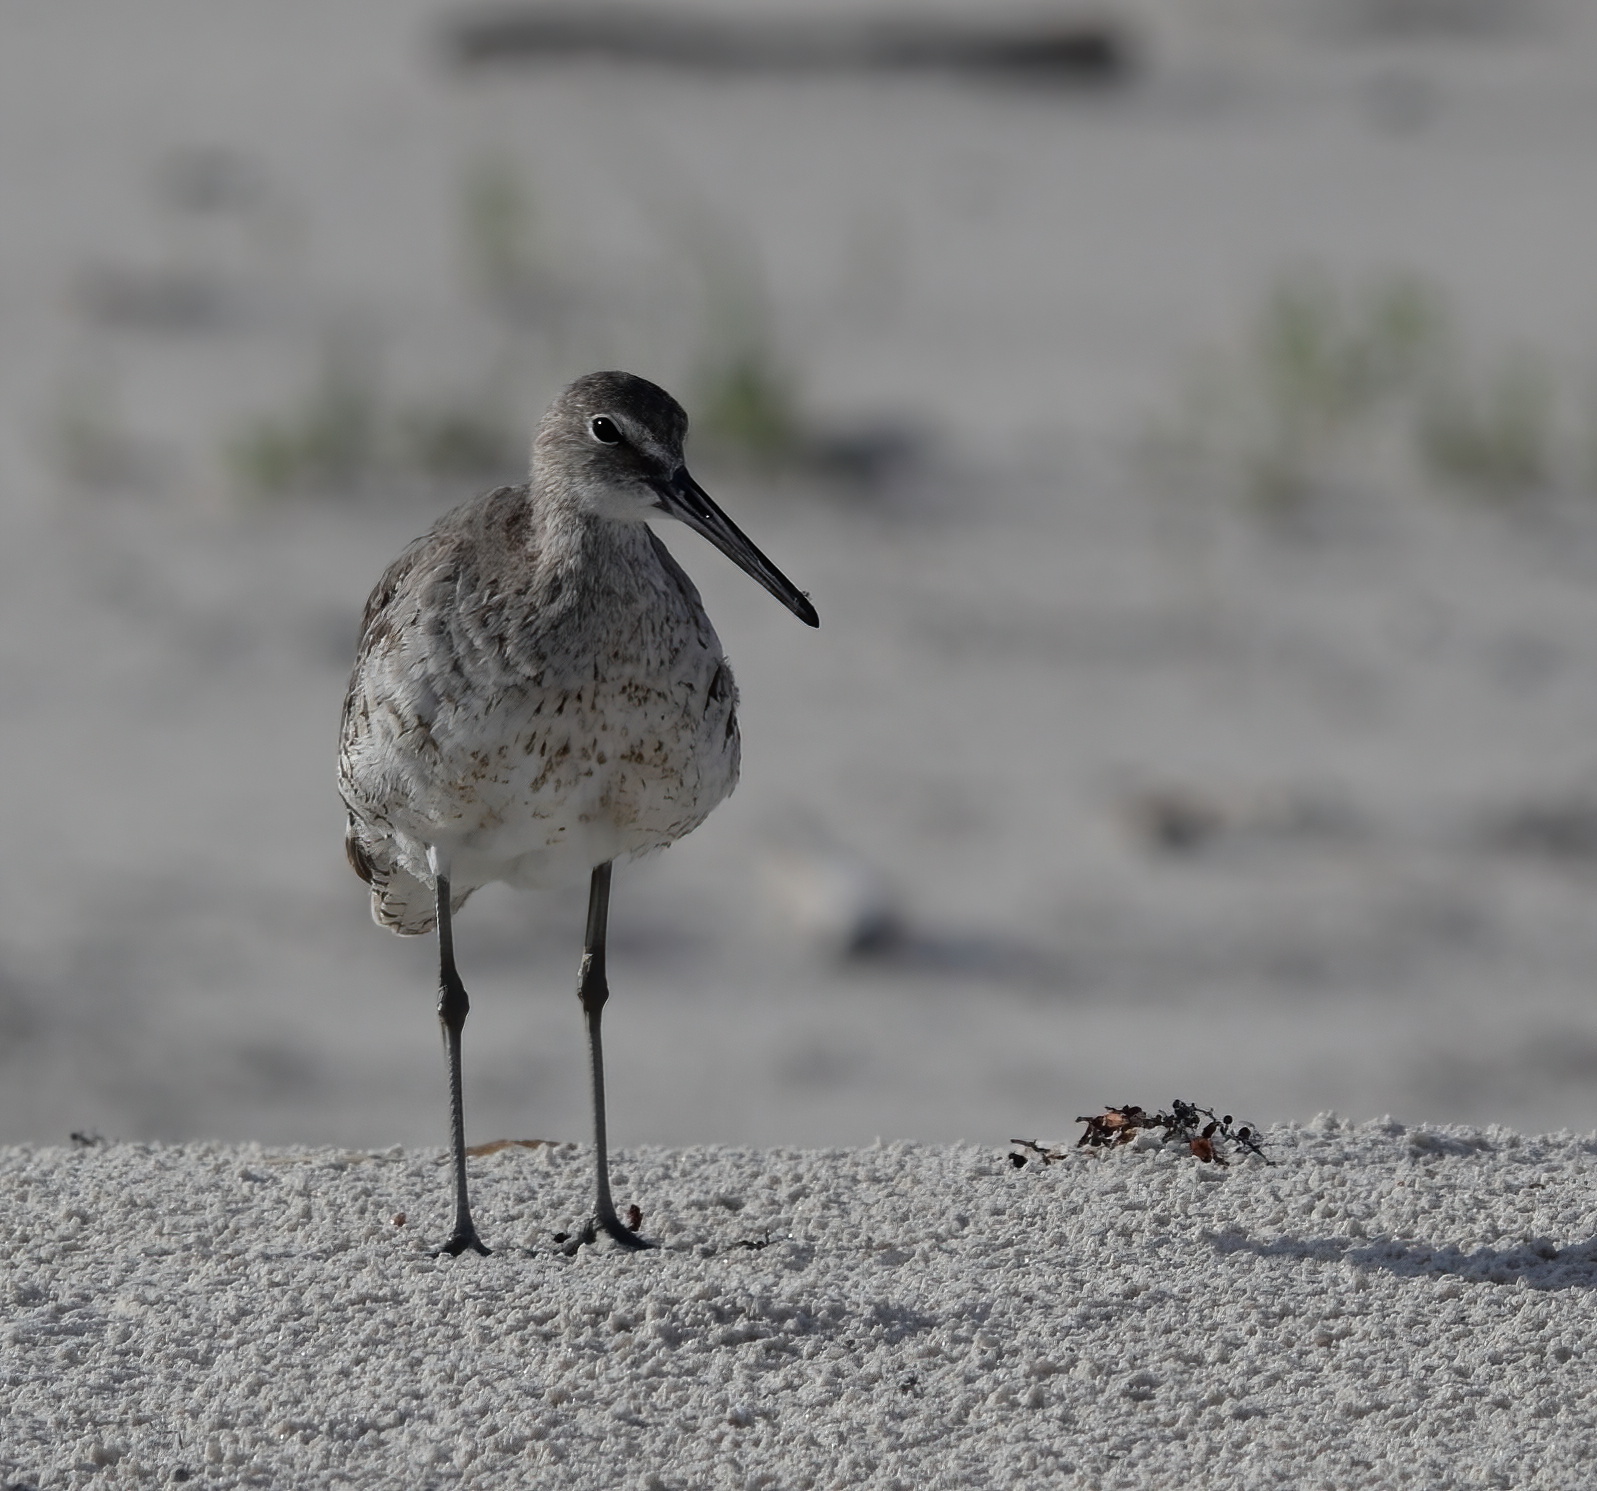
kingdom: Animalia
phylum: Chordata
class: Aves
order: Charadriiformes
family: Scolopacidae
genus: Tringa
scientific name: Tringa semipalmata
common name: Willet
